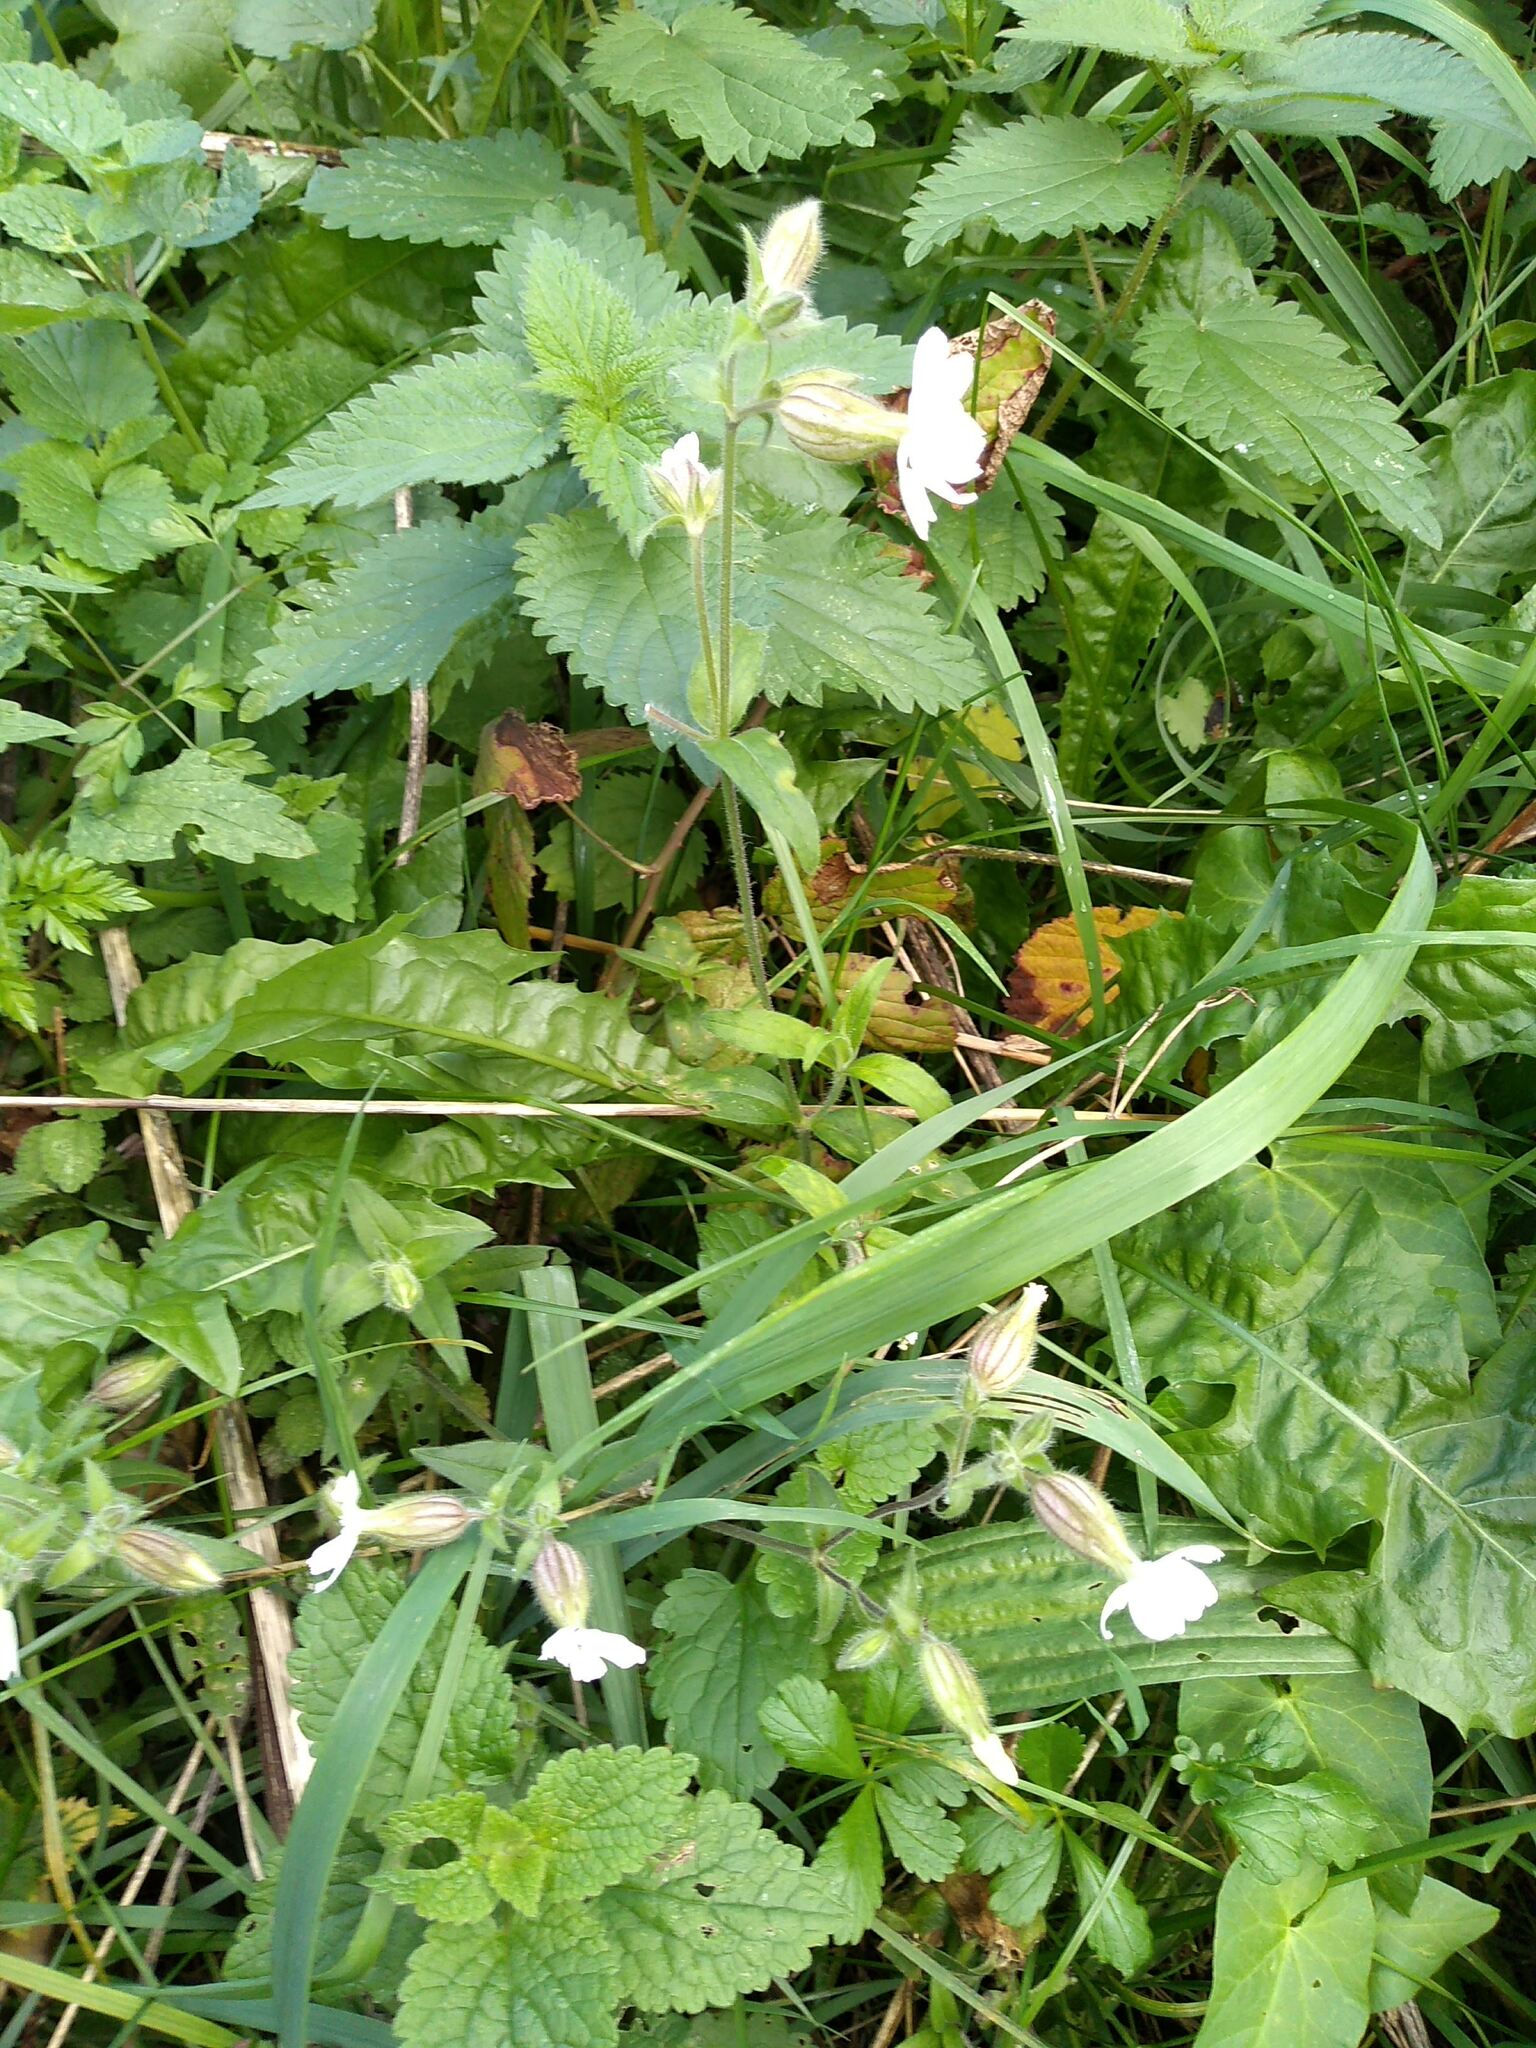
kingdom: Plantae
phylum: Tracheophyta
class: Magnoliopsida
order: Caryophyllales
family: Caryophyllaceae
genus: Silene
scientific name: Silene latifolia
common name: White campion
